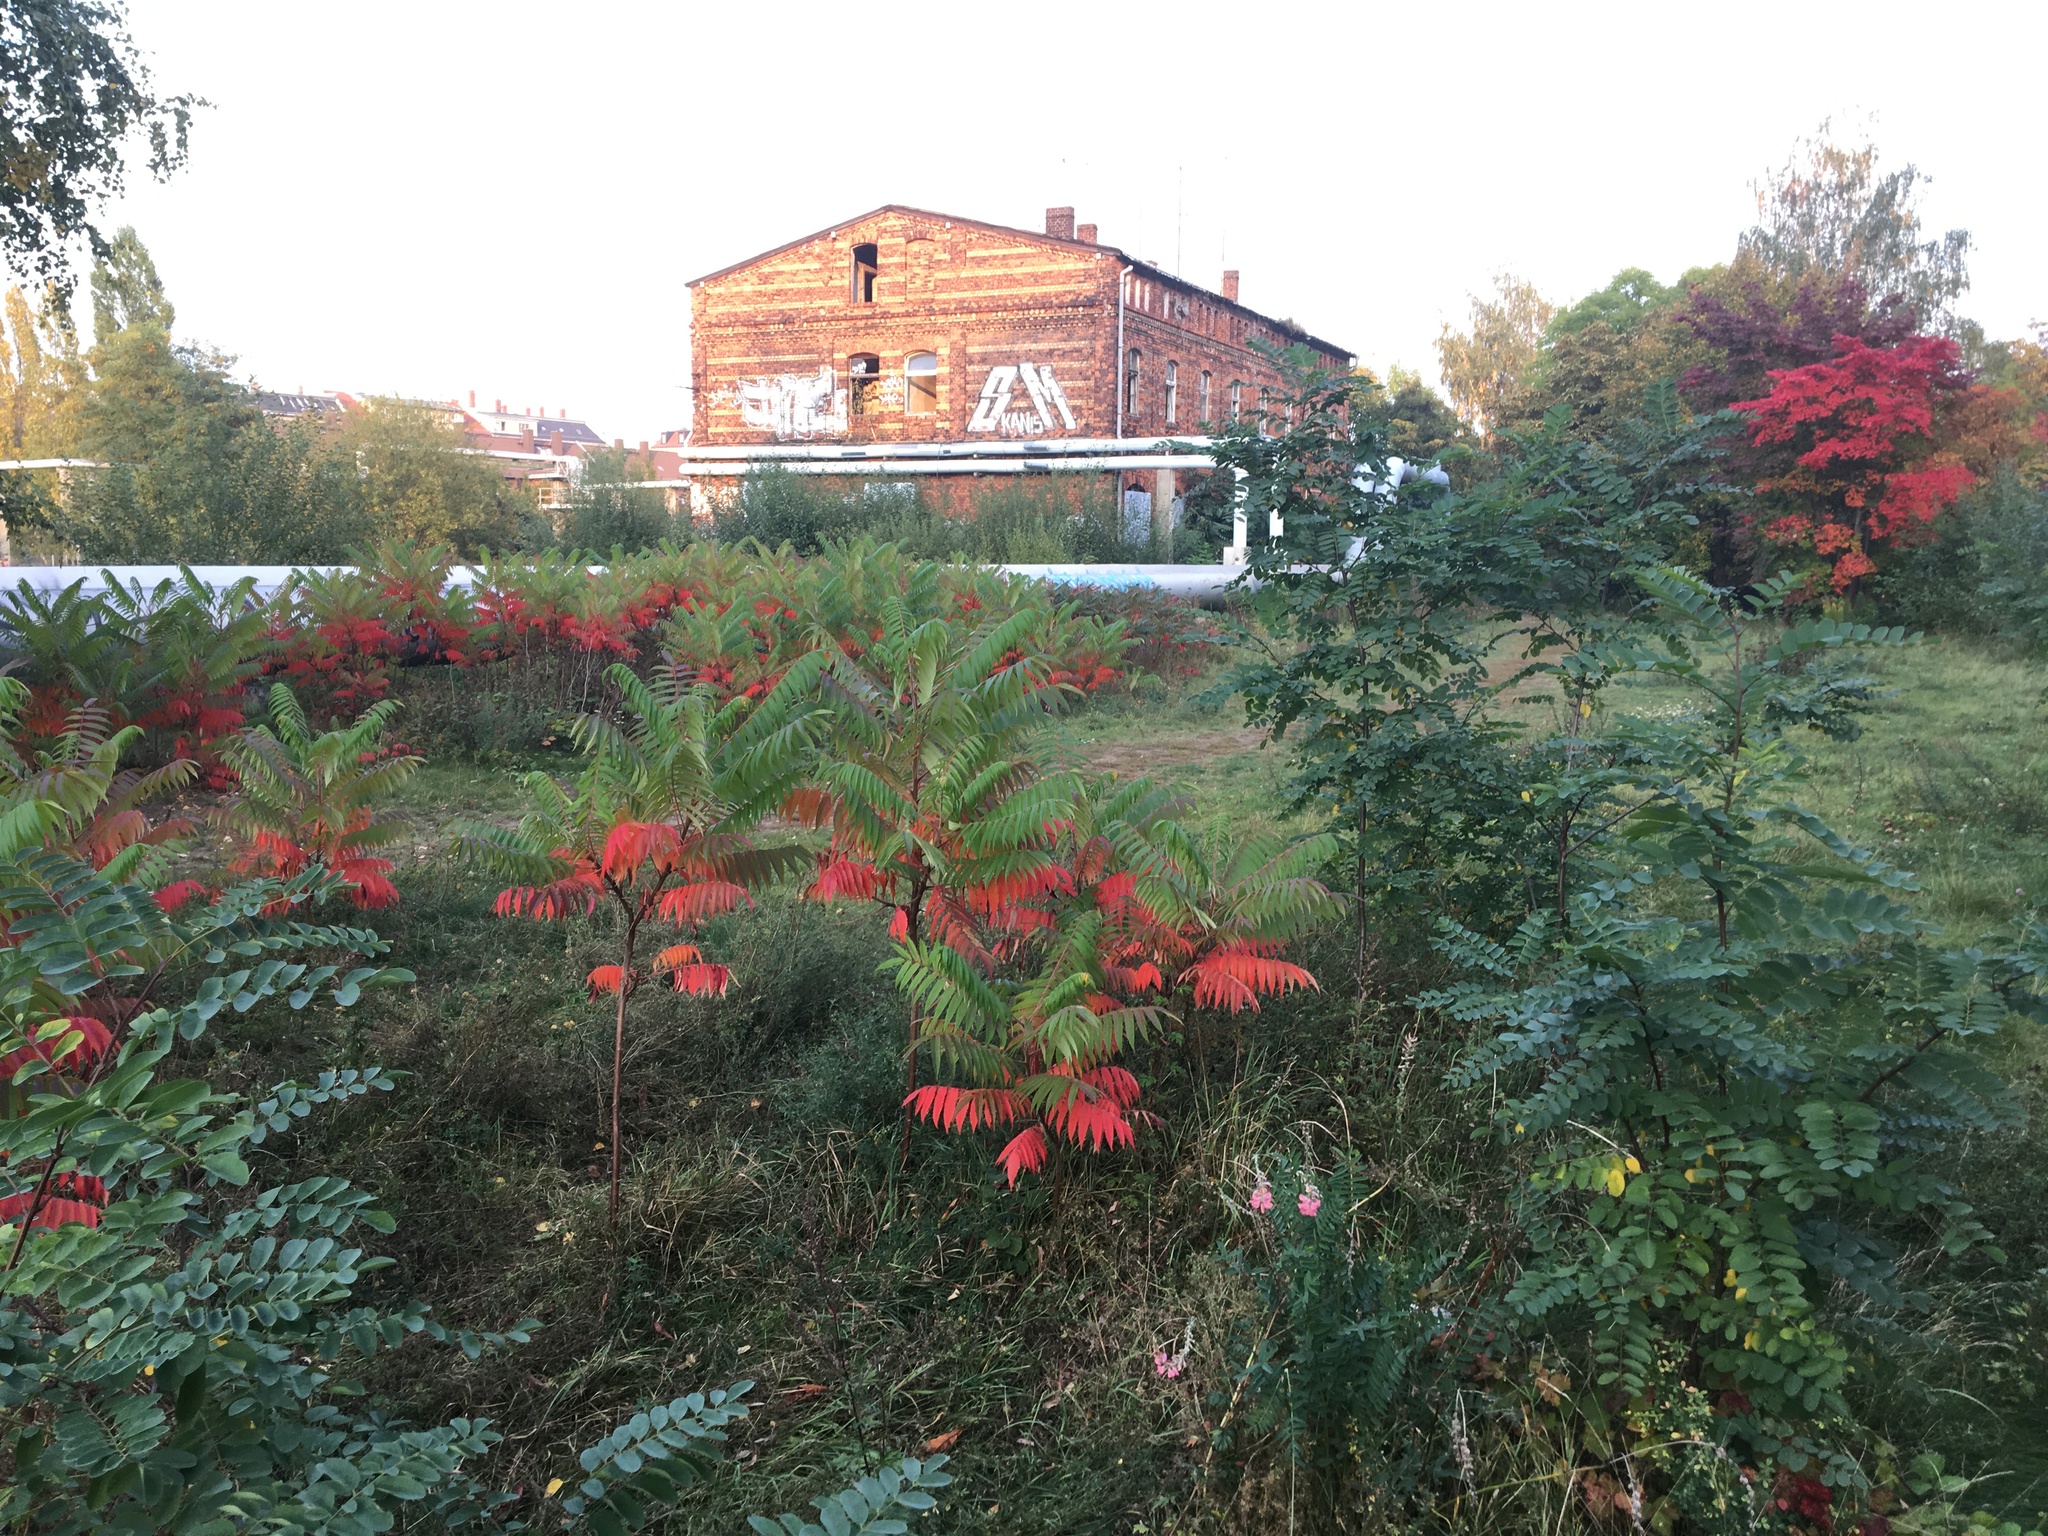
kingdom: Plantae
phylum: Tracheophyta
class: Magnoliopsida
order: Sapindales
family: Anacardiaceae
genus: Rhus
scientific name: Rhus typhina
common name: Staghorn sumac
